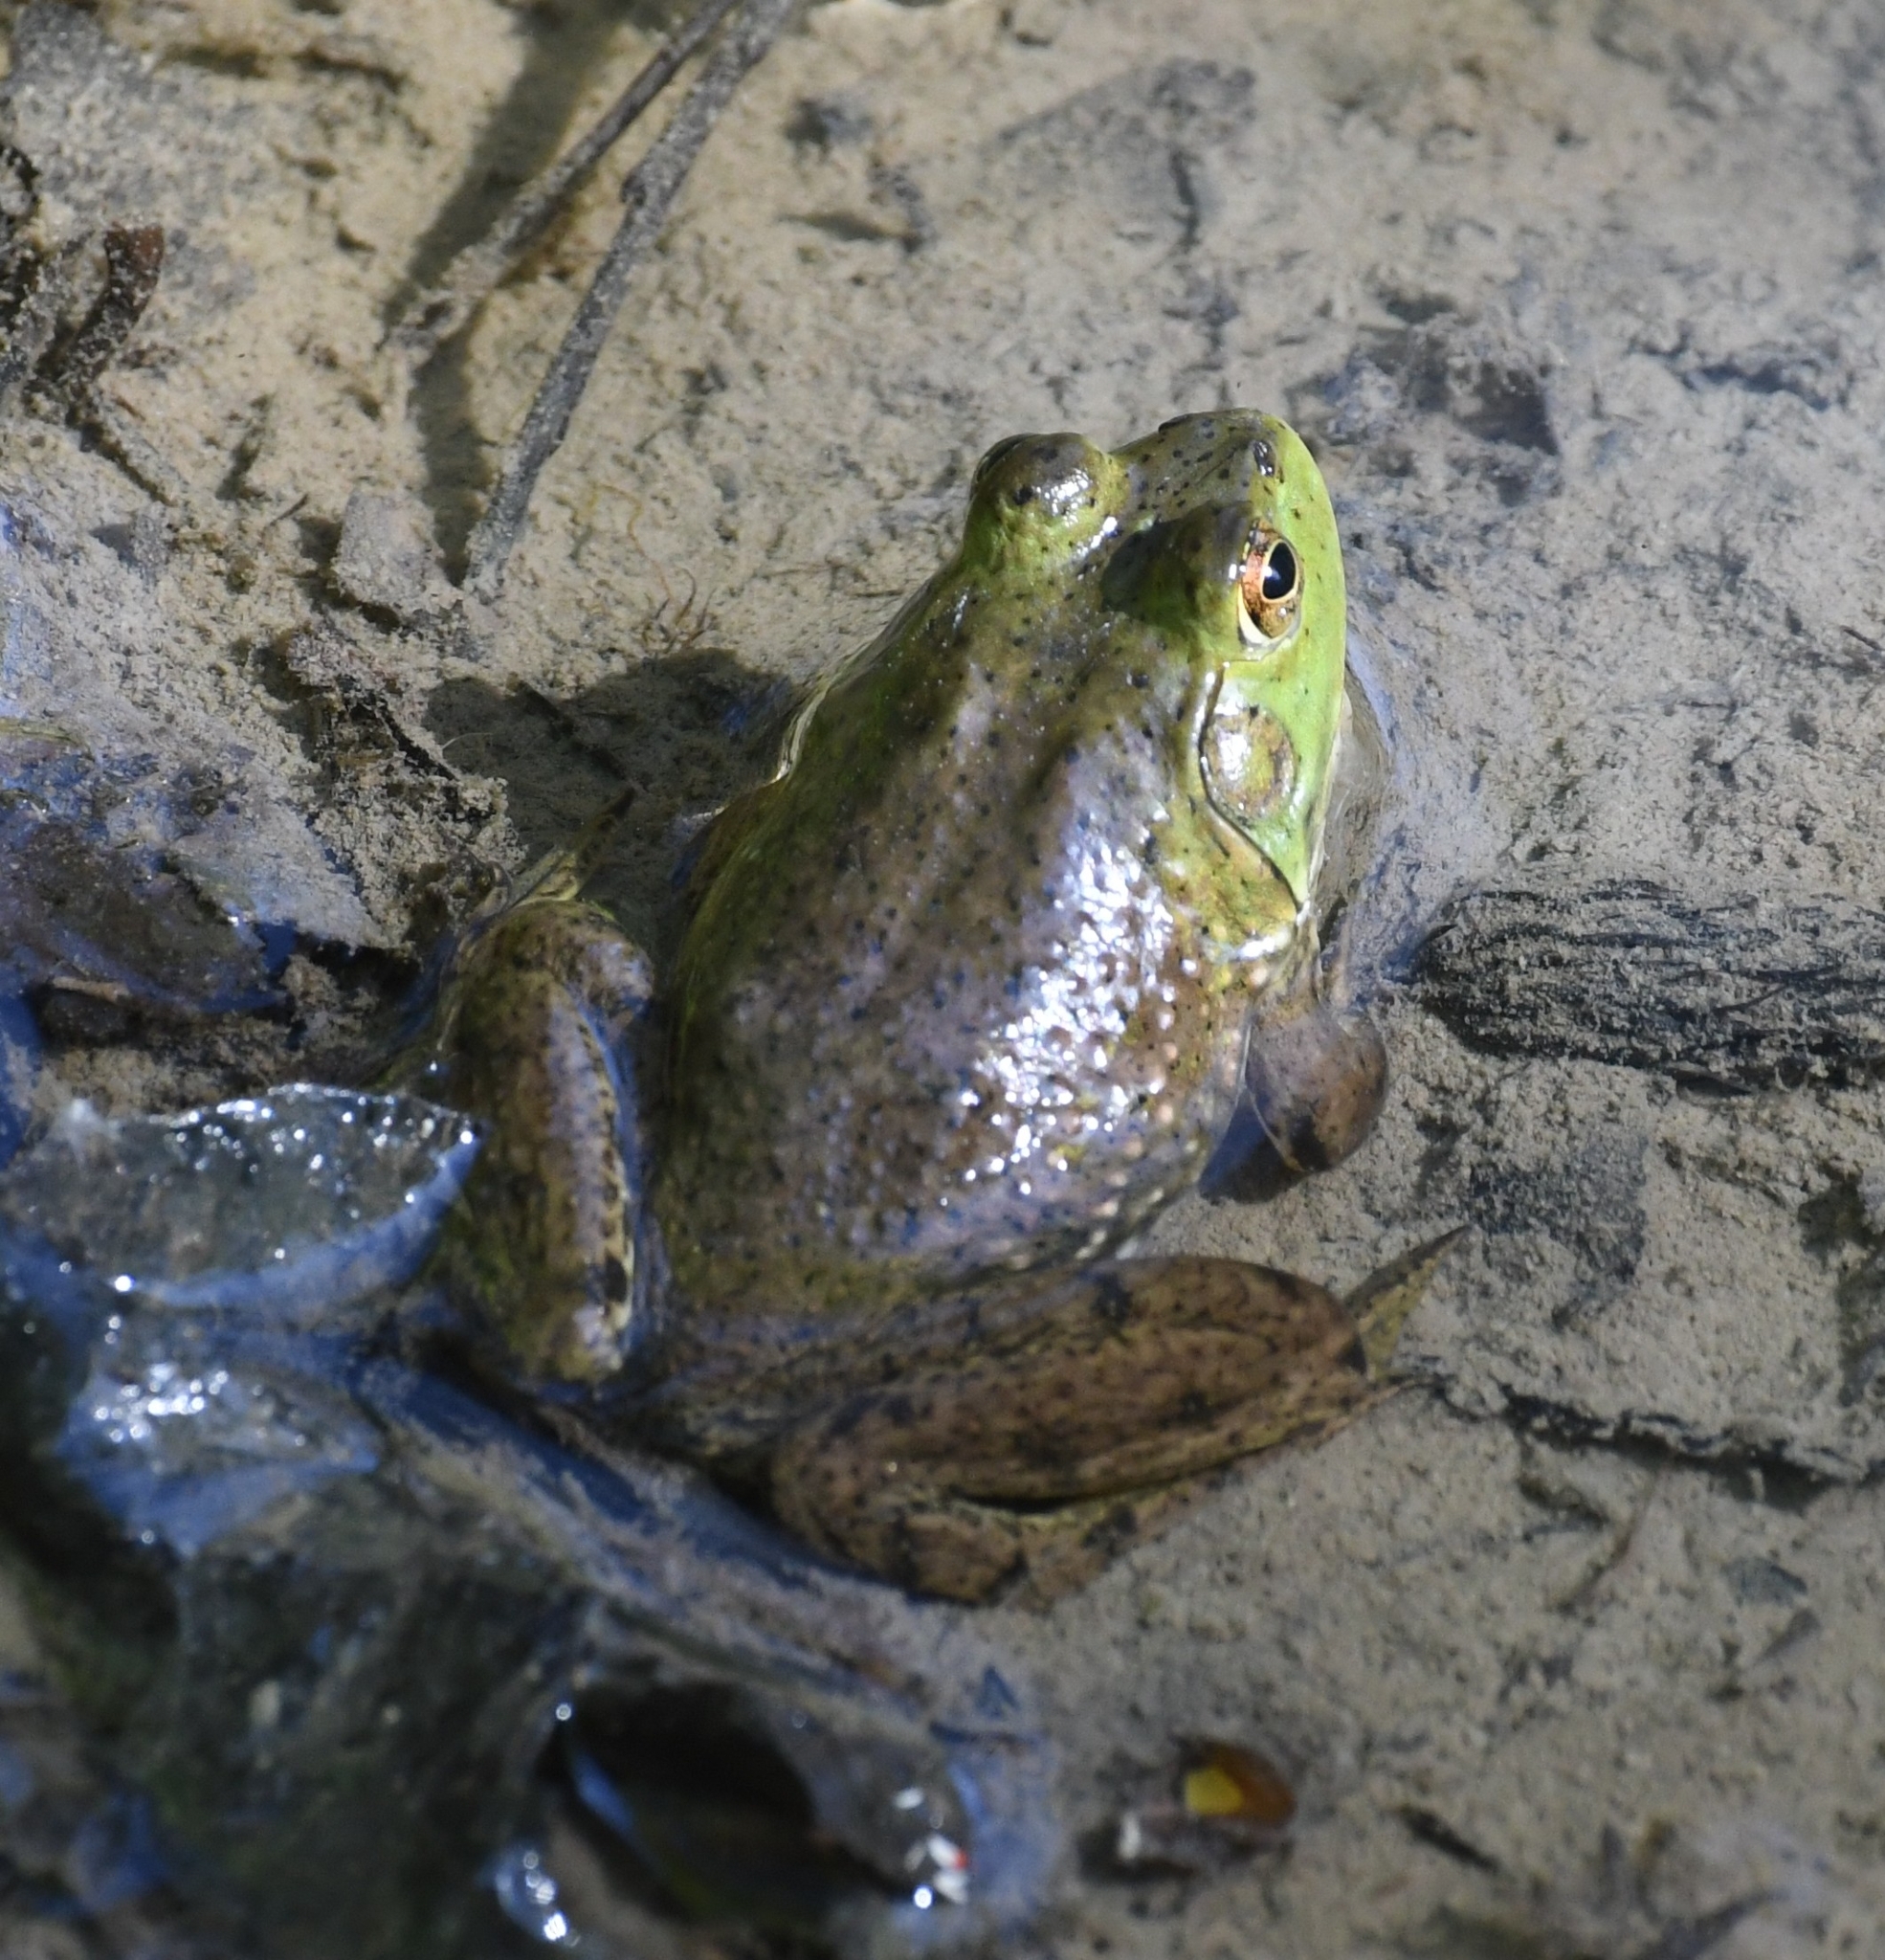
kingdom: Animalia
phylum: Chordata
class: Amphibia
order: Anura
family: Ranidae
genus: Lithobates
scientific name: Lithobates catesbeianus
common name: American bullfrog
